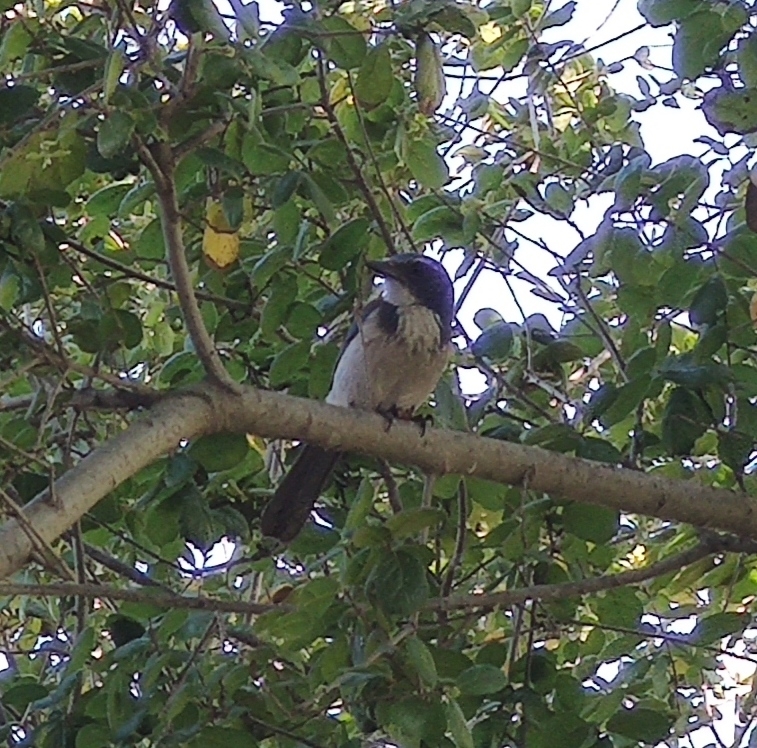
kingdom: Animalia
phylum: Chordata
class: Aves
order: Passeriformes
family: Corvidae
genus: Aphelocoma
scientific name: Aphelocoma californica
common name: California scrub-jay
